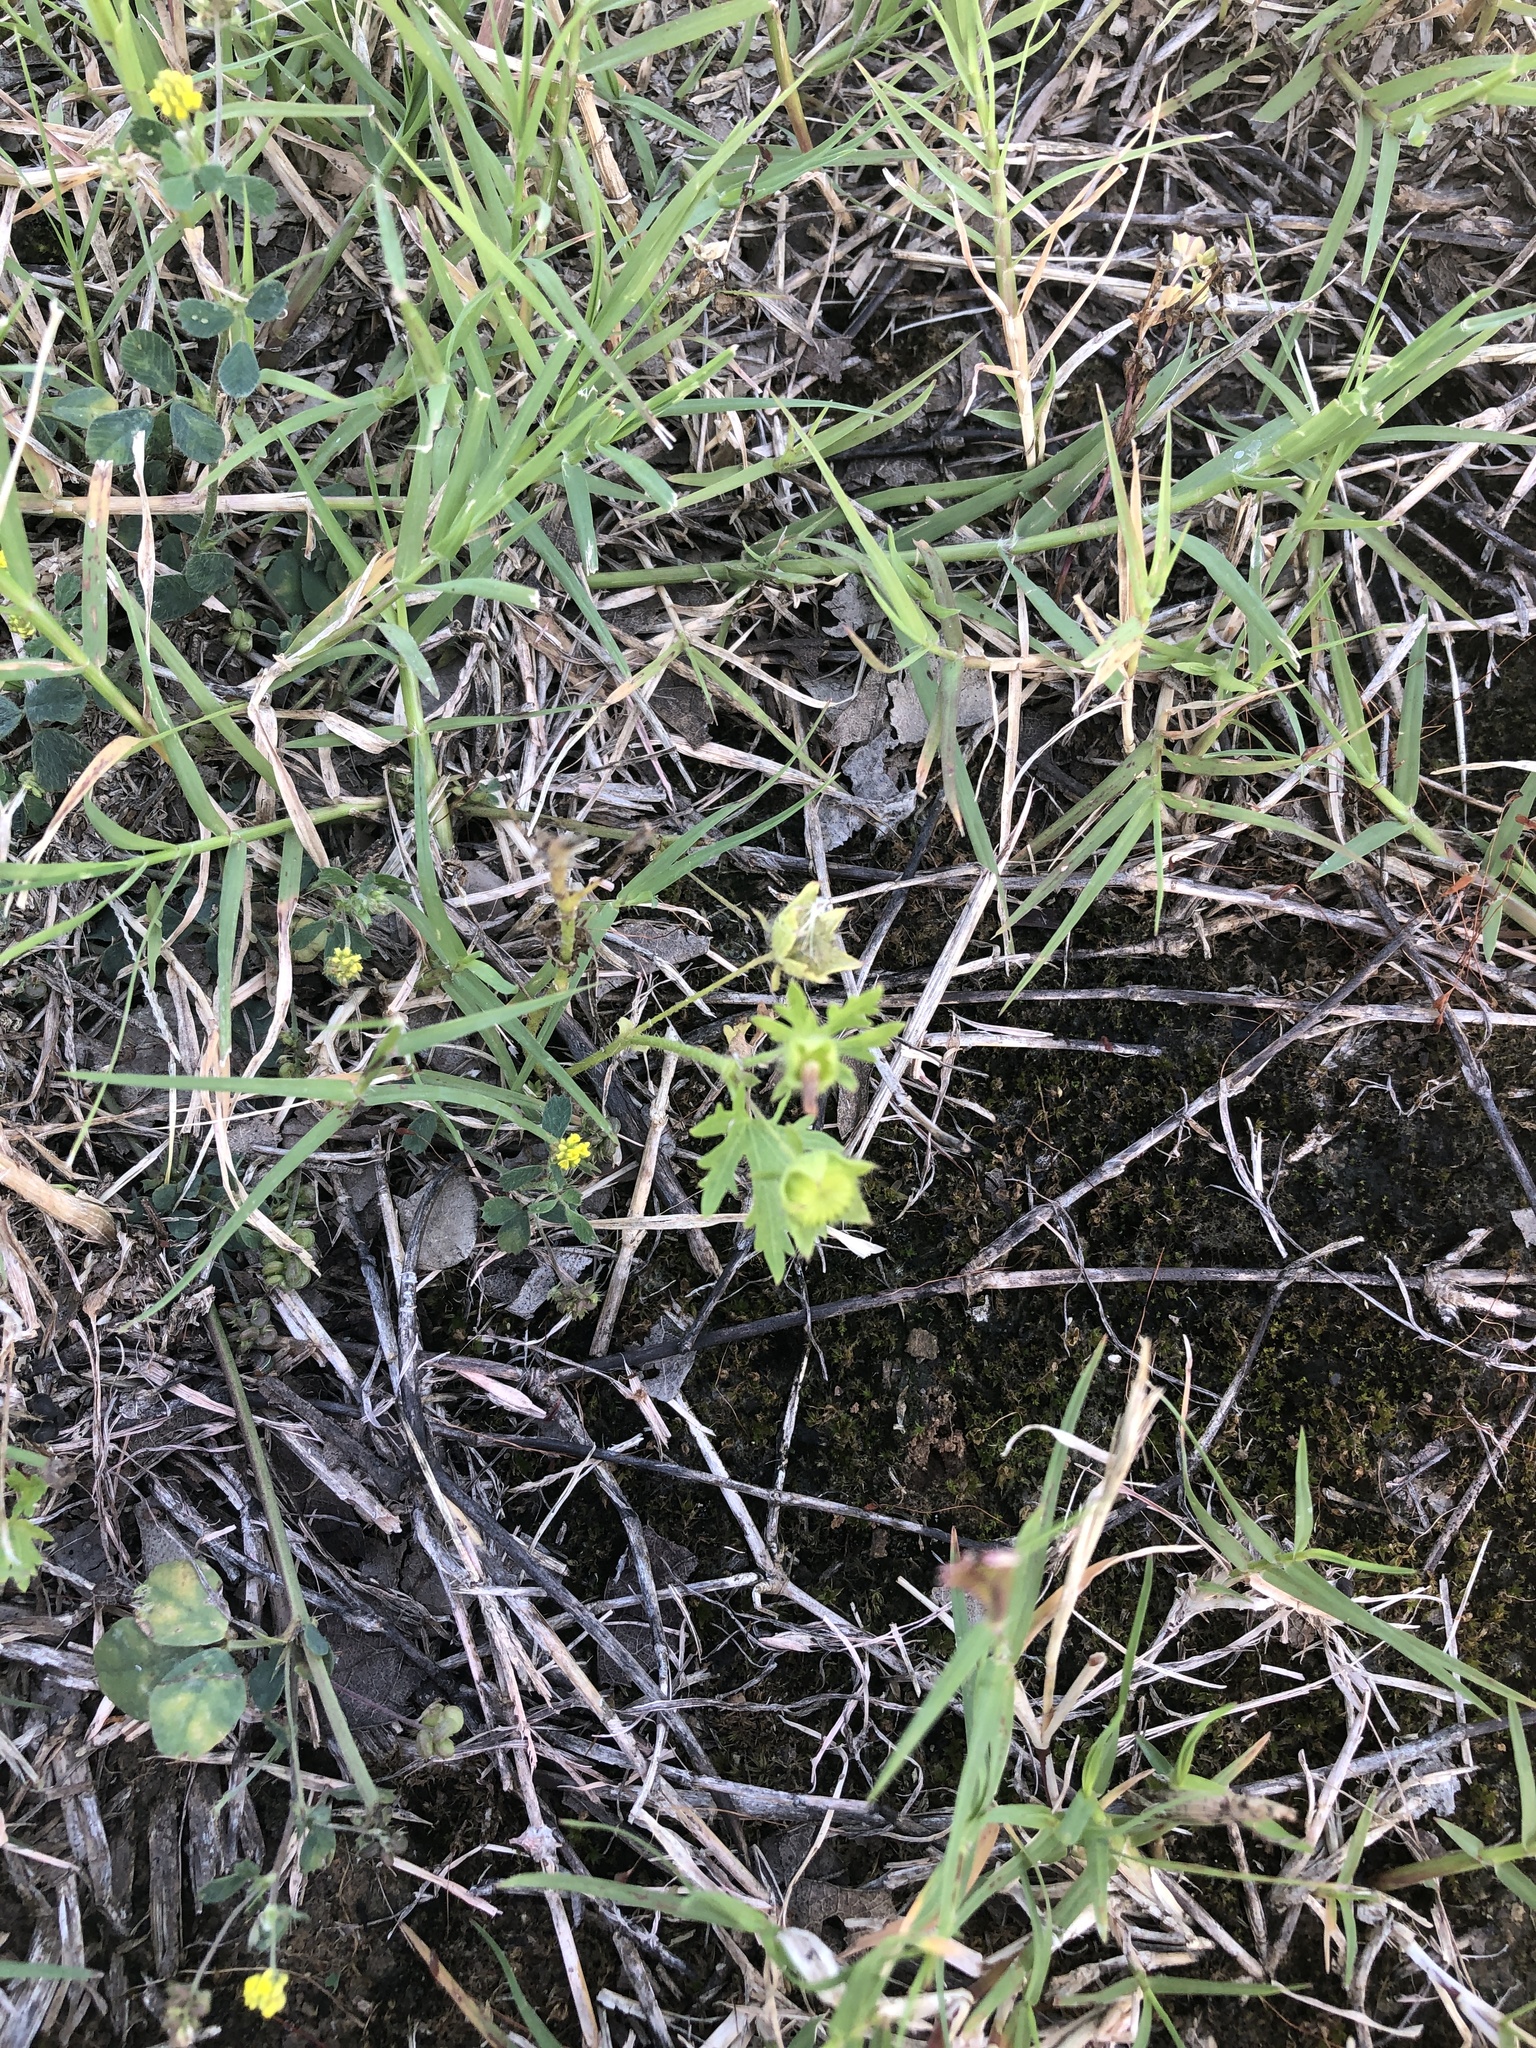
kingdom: Plantae
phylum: Tracheophyta
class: Magnoliopsida
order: Malvales
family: Malvaceae
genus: Modiola
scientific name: Modiola caroliniana
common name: Carolina bristlemallow
